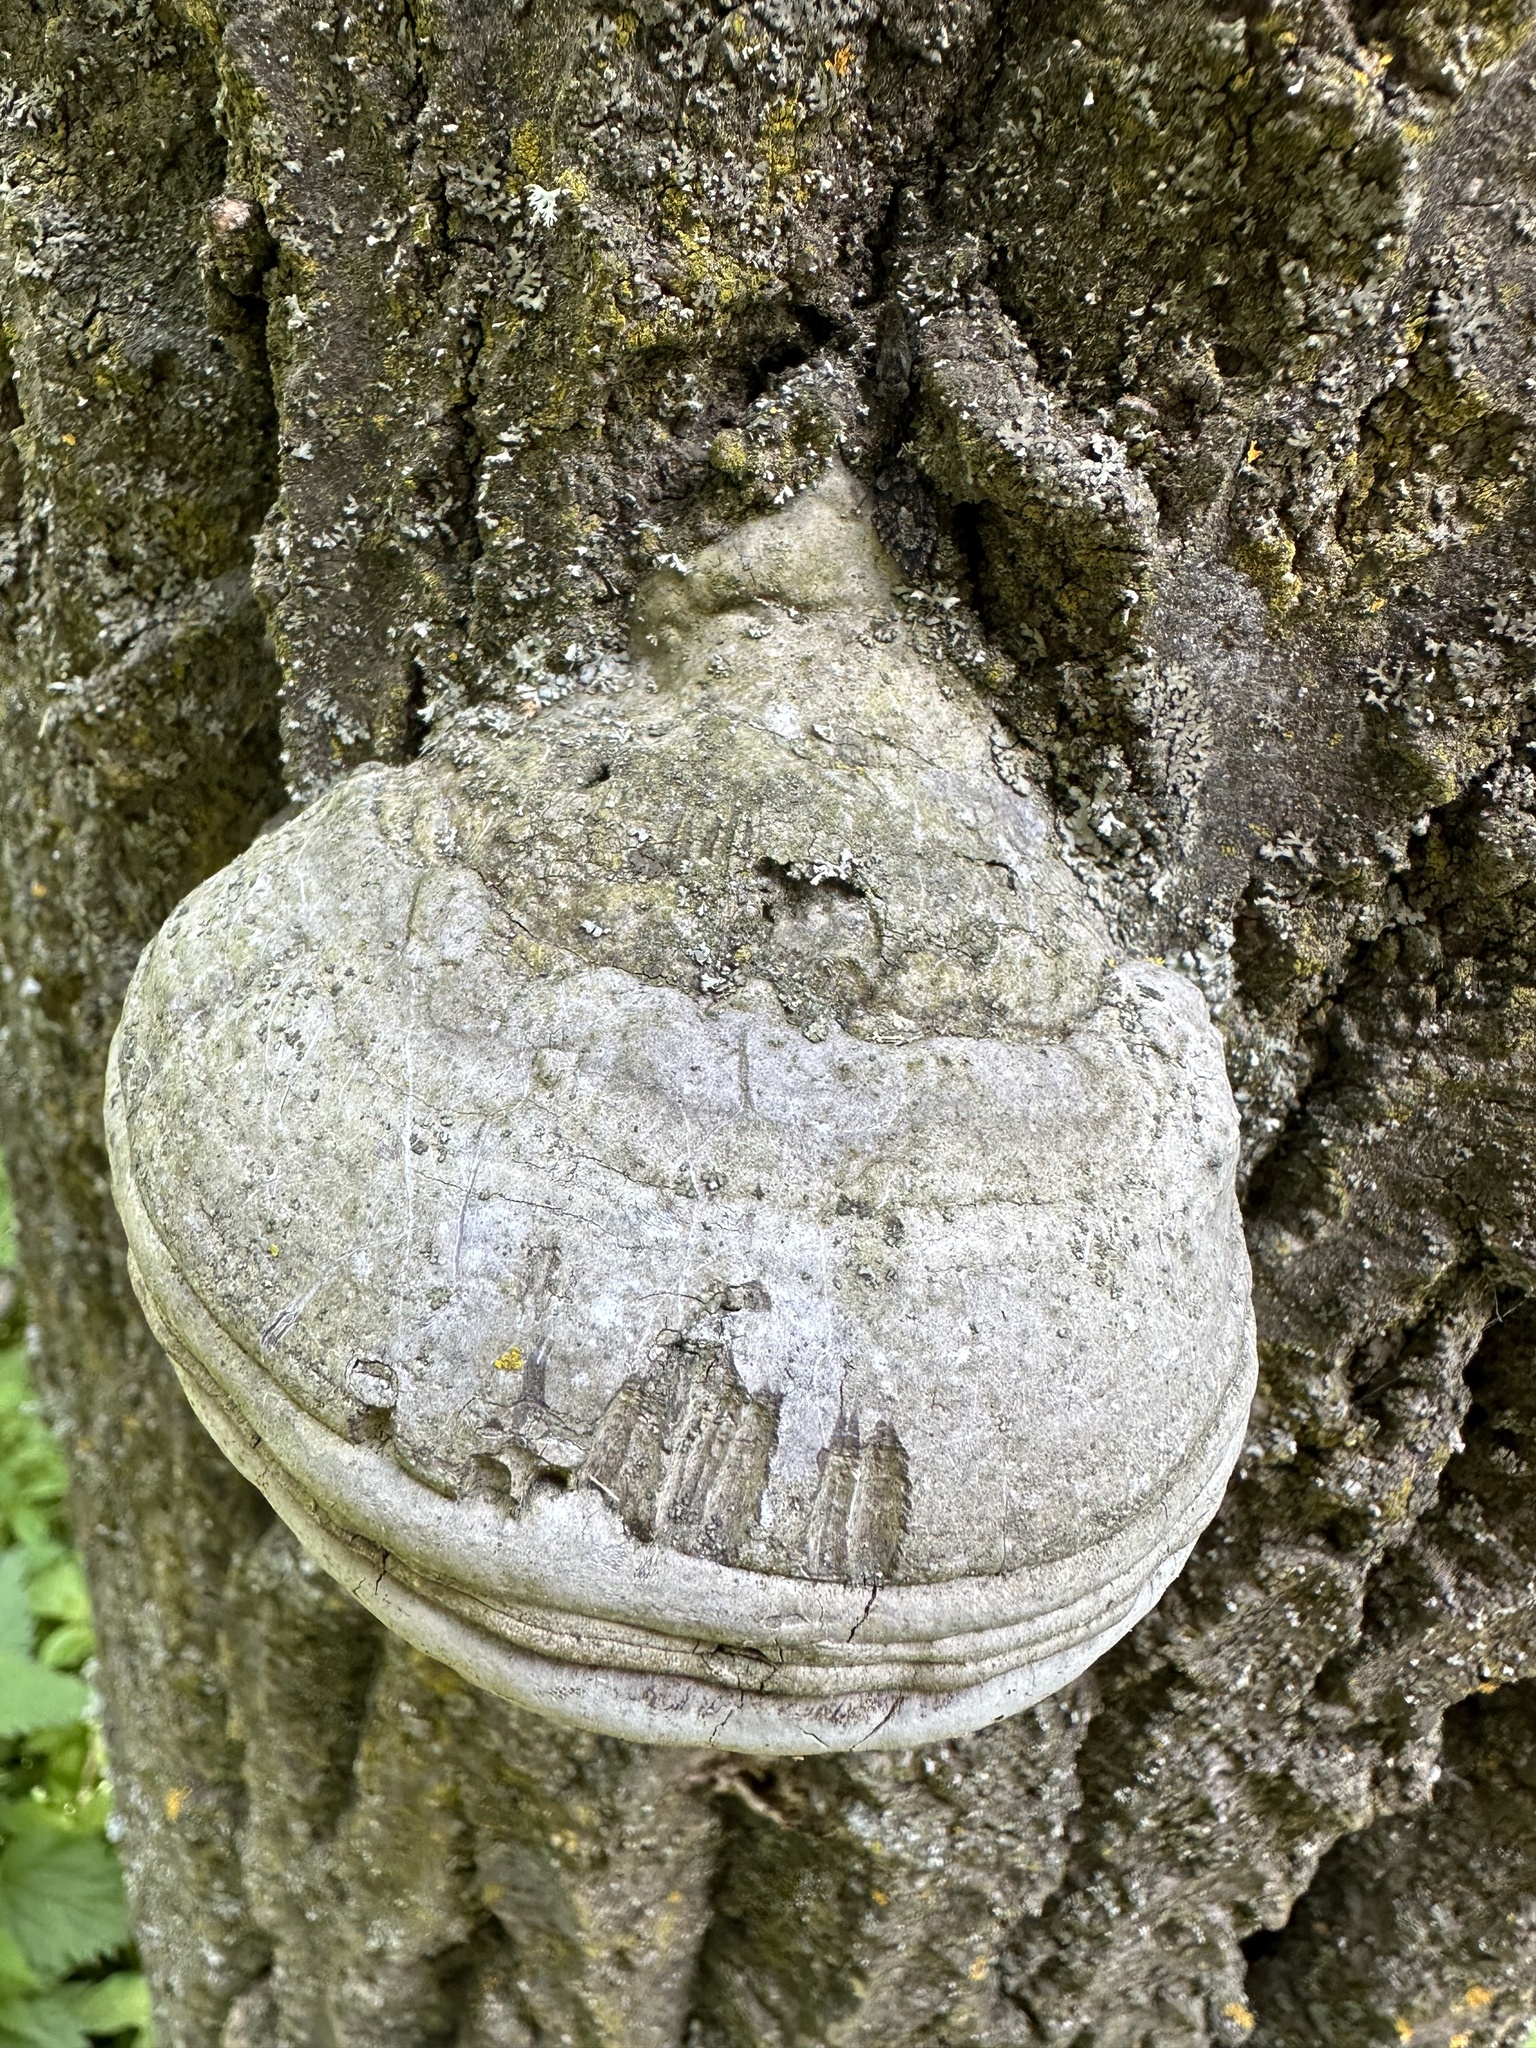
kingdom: Fungi
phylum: Basidiomycota
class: Agaricomycetes
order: Polyporales
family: Polyporaceae
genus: Fomes
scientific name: Fomes fomentarius
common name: Hoof fungus
